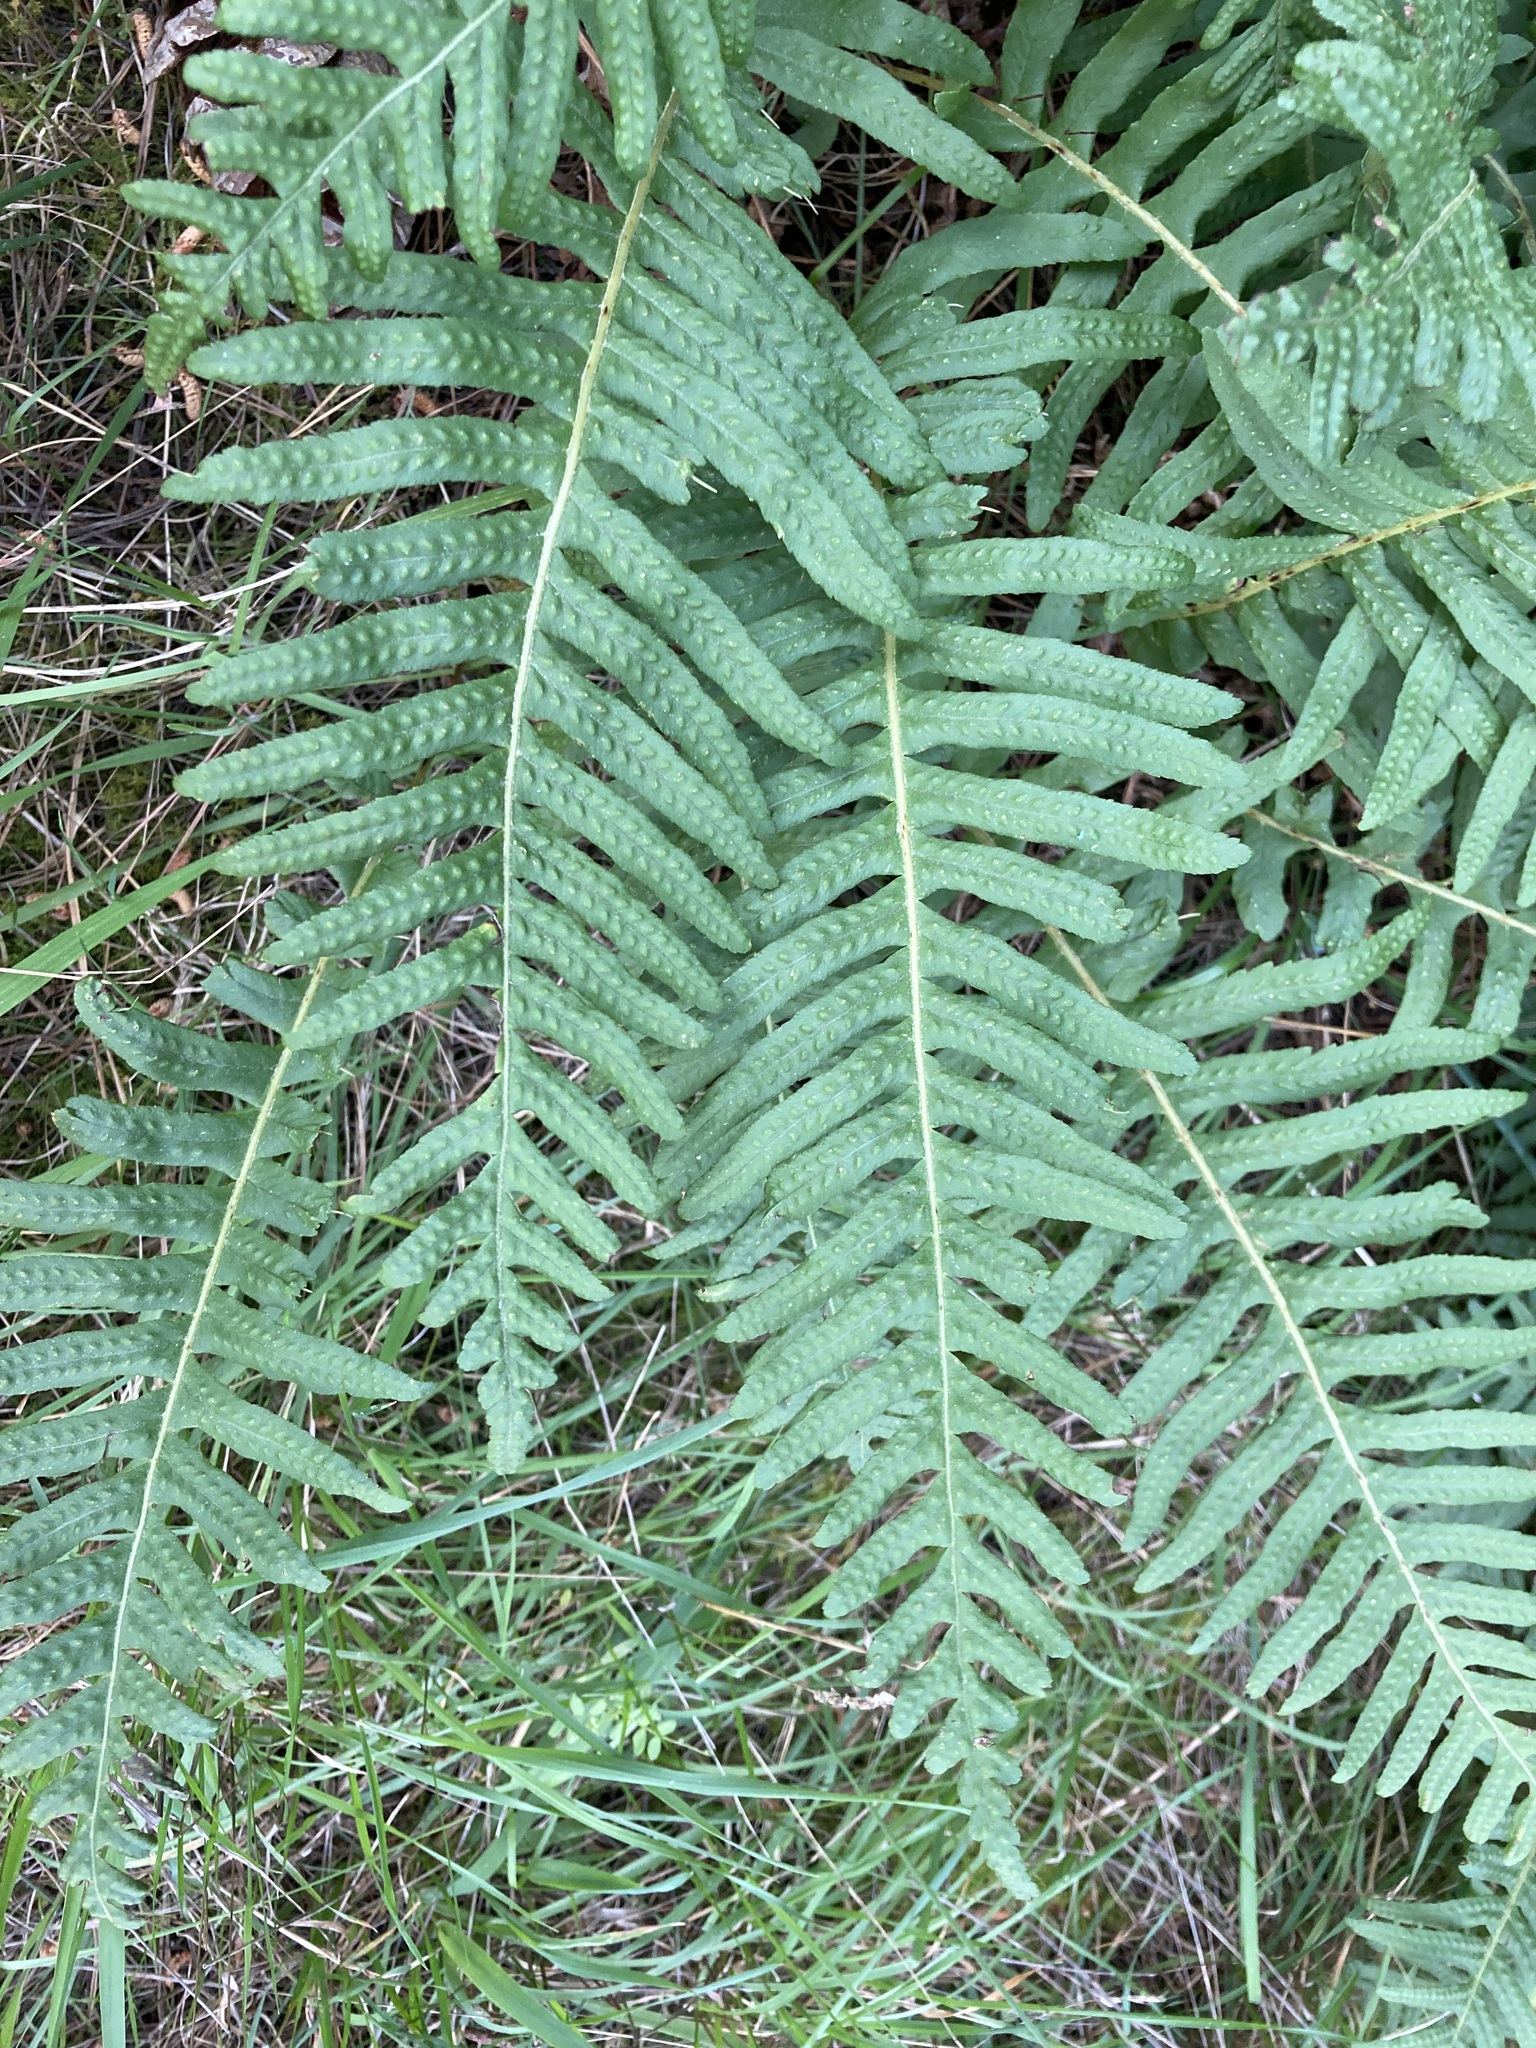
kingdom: Plantae
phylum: Tracheophyta
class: Polypodiopsida
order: Polypodiales
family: Polypodiaceae
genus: Polypodium
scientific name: Polypodium vulgare
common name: Common polypody
